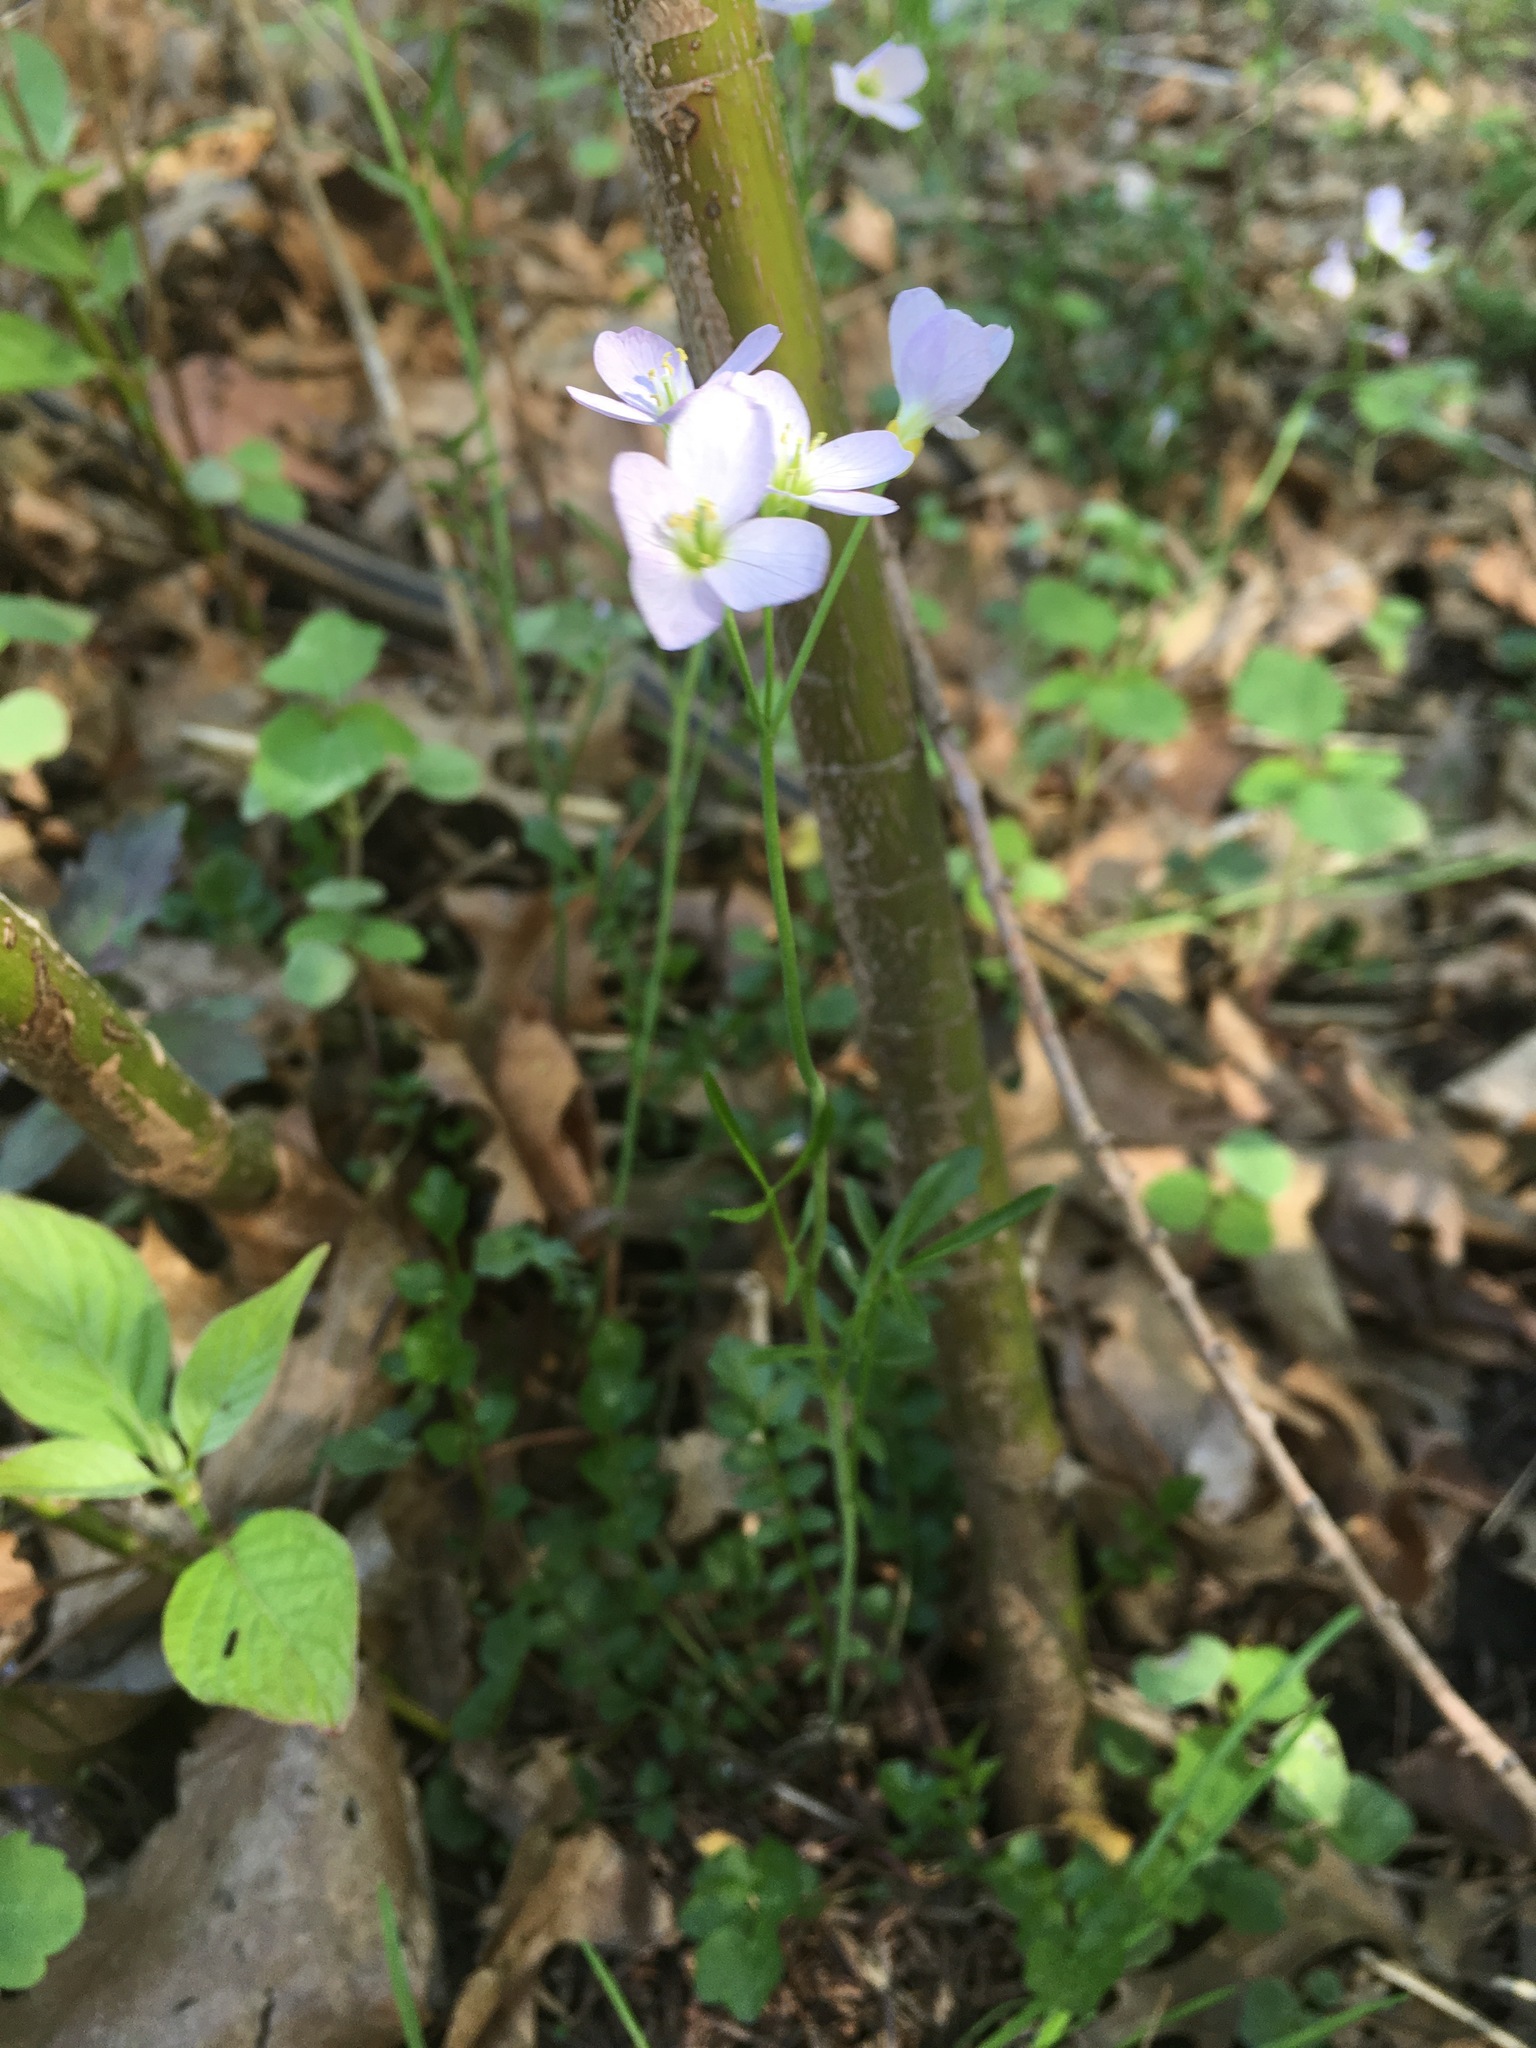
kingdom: Plantae
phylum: Tracheophyta
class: Magnoliopsida
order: Brassicales
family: Brassicaceae
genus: Cardamine
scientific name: Cardamine pratensis
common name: Cuckoo flower
